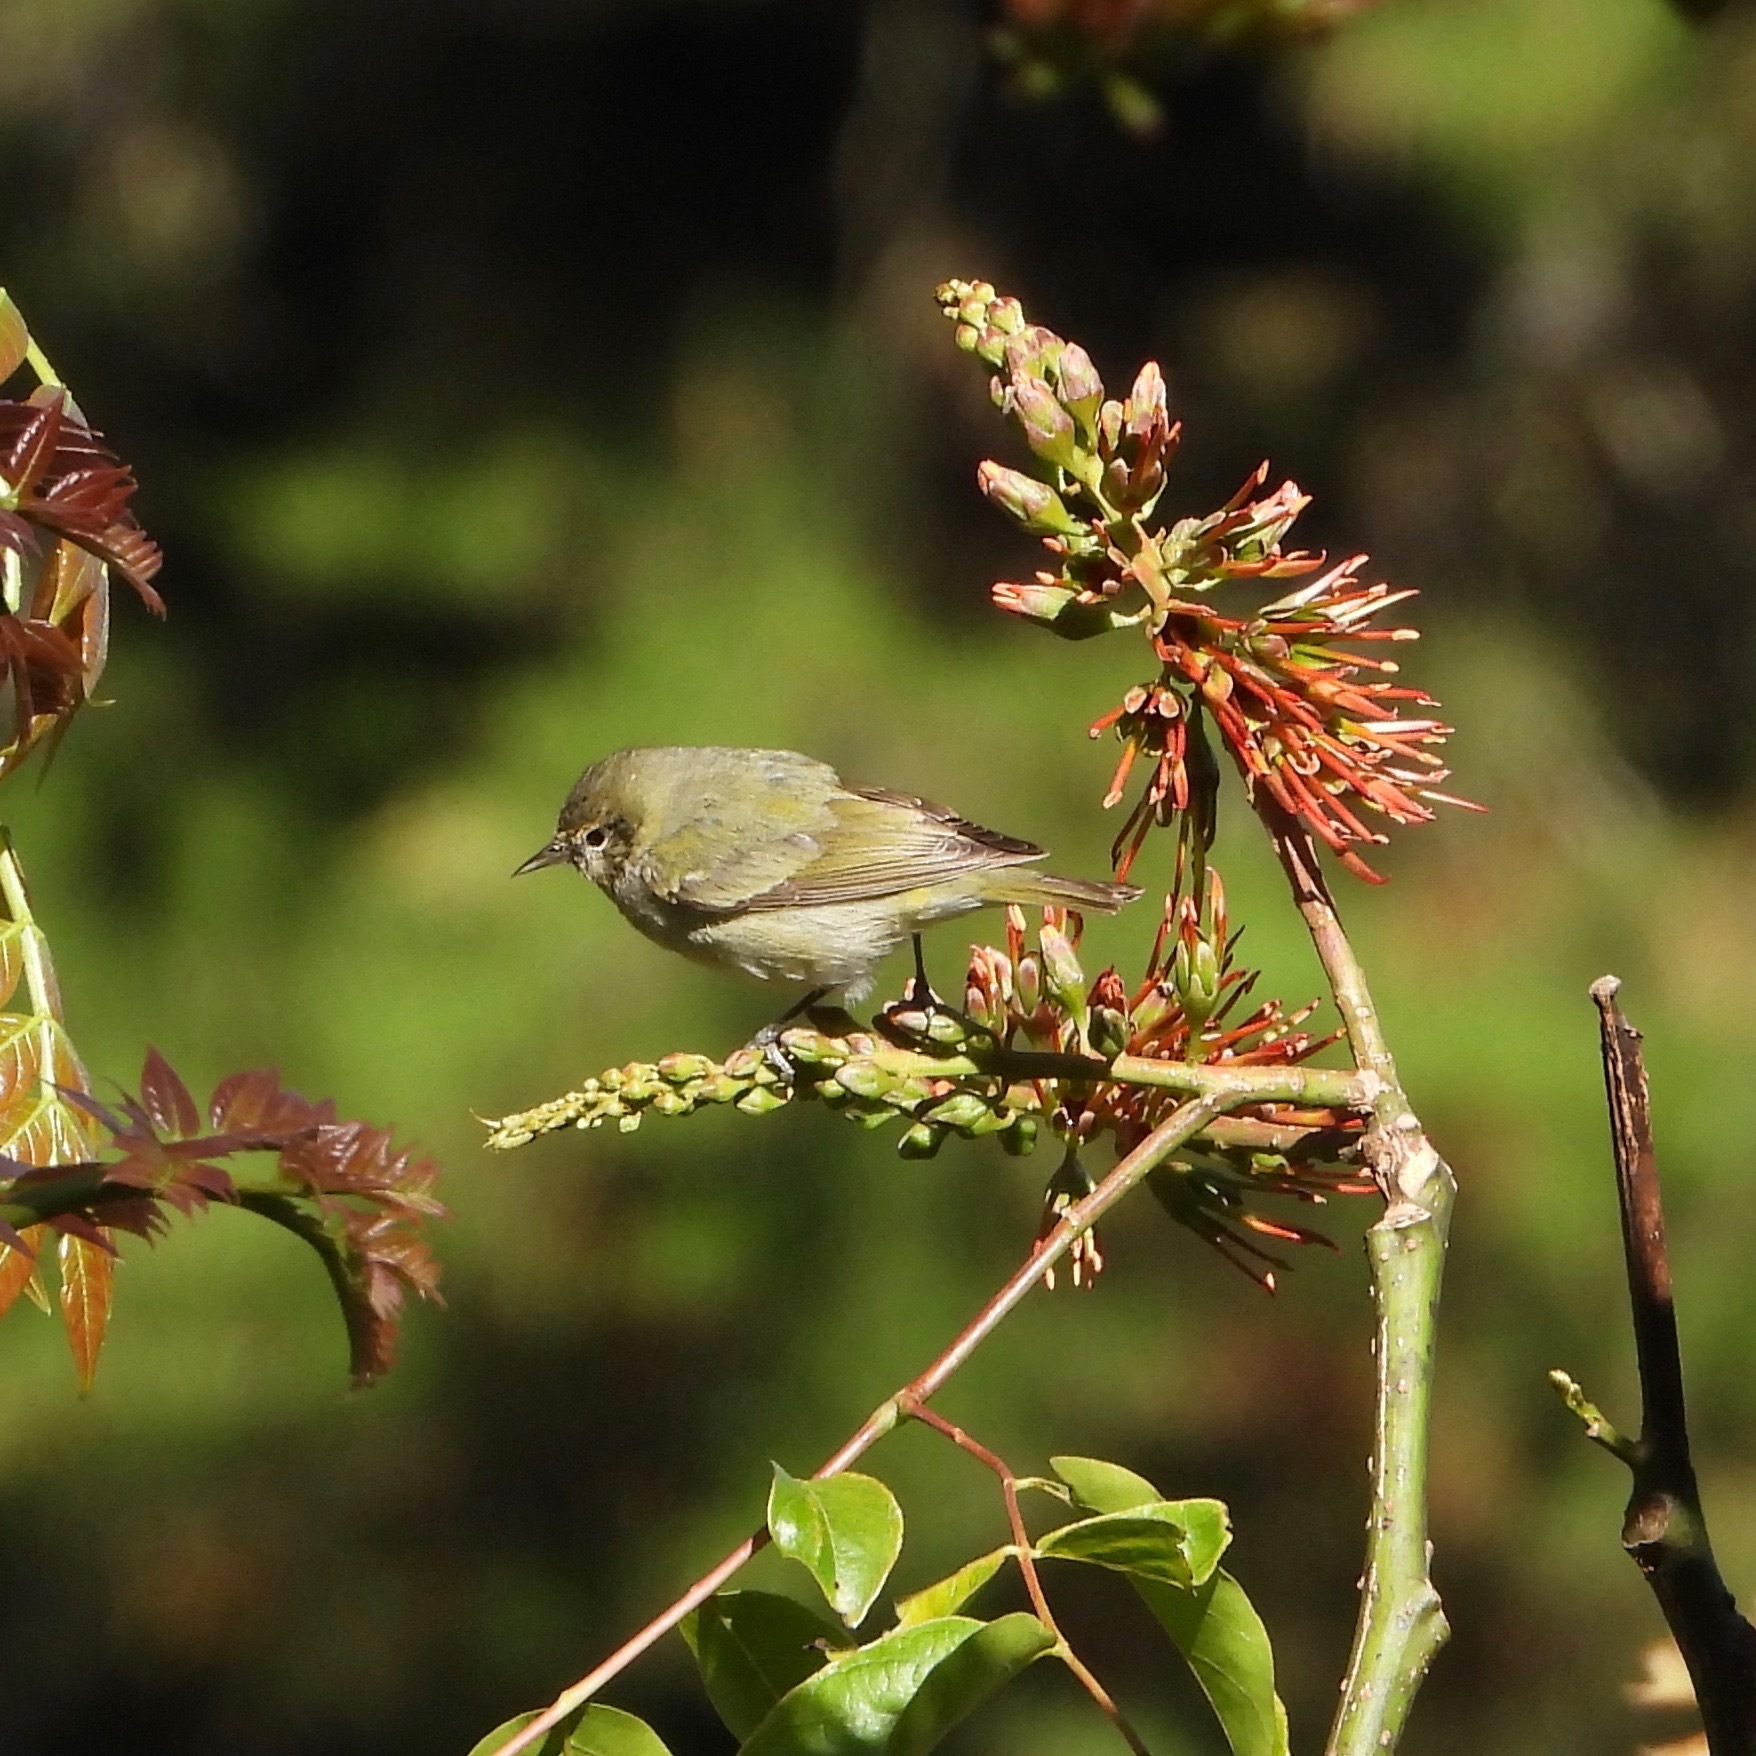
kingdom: Animalia
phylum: Chordata
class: Aves
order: Passeriformes
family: Parulidae
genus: Leiothlypis
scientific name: Leiothlypis peregrina
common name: Tennessee warbler
